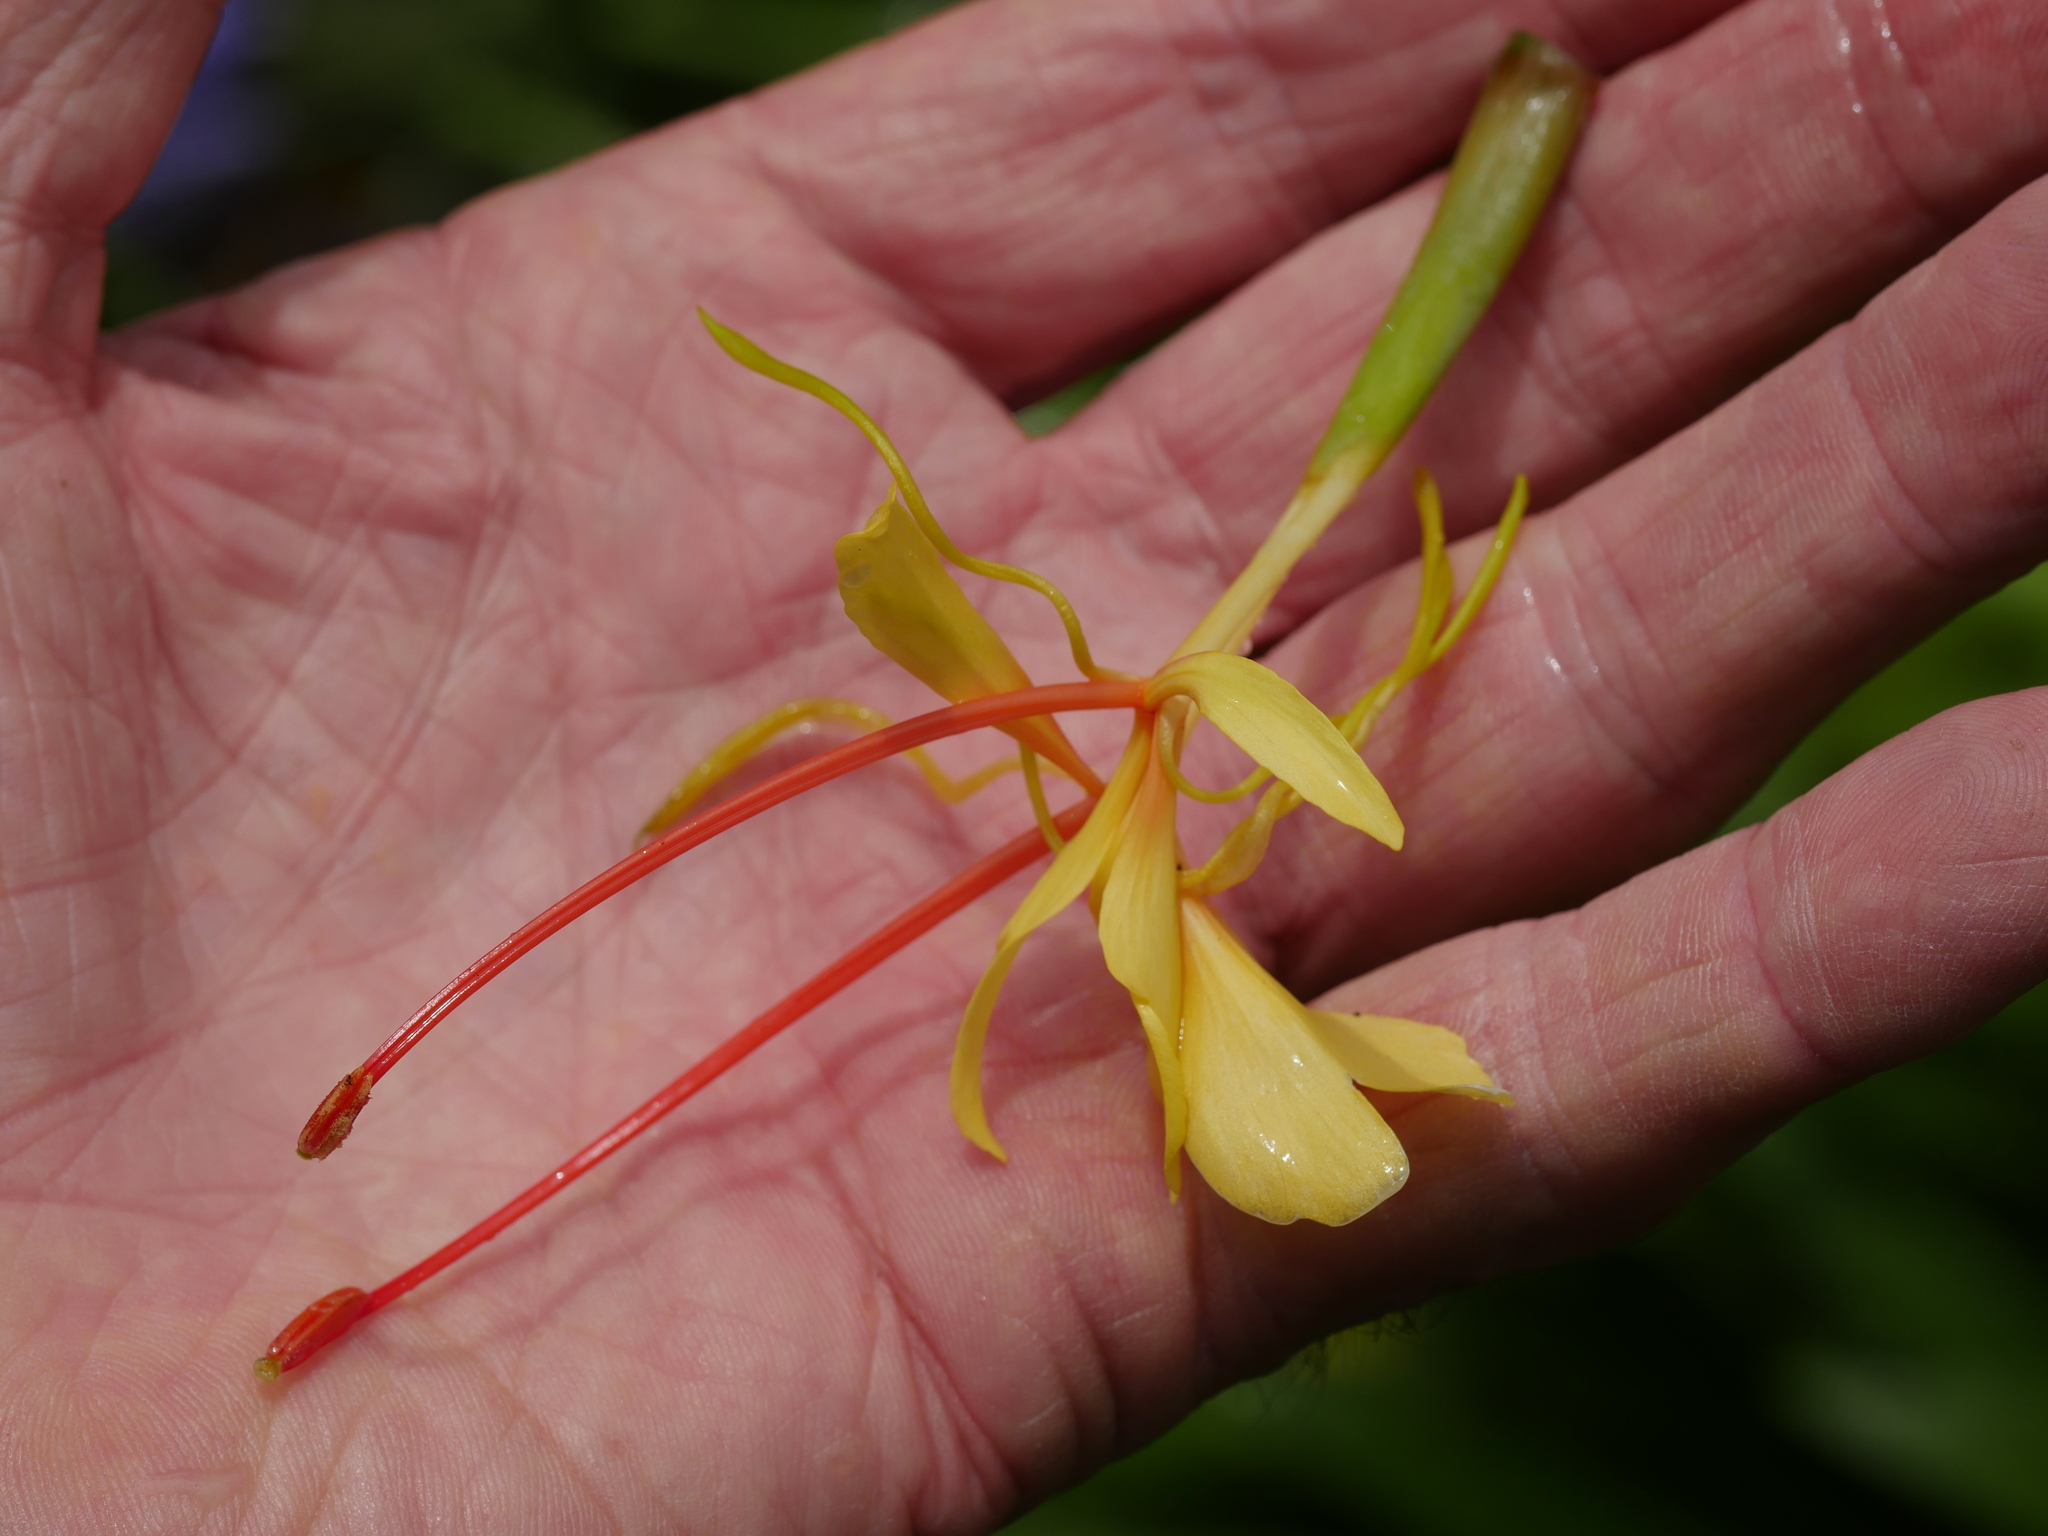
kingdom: Plantae
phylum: Tracheophyta
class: Liliopsida
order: Zingiberales
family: Zingiberaceae
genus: Hedychium
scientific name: Hedychium gardnerianum
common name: Himalayan ginger
